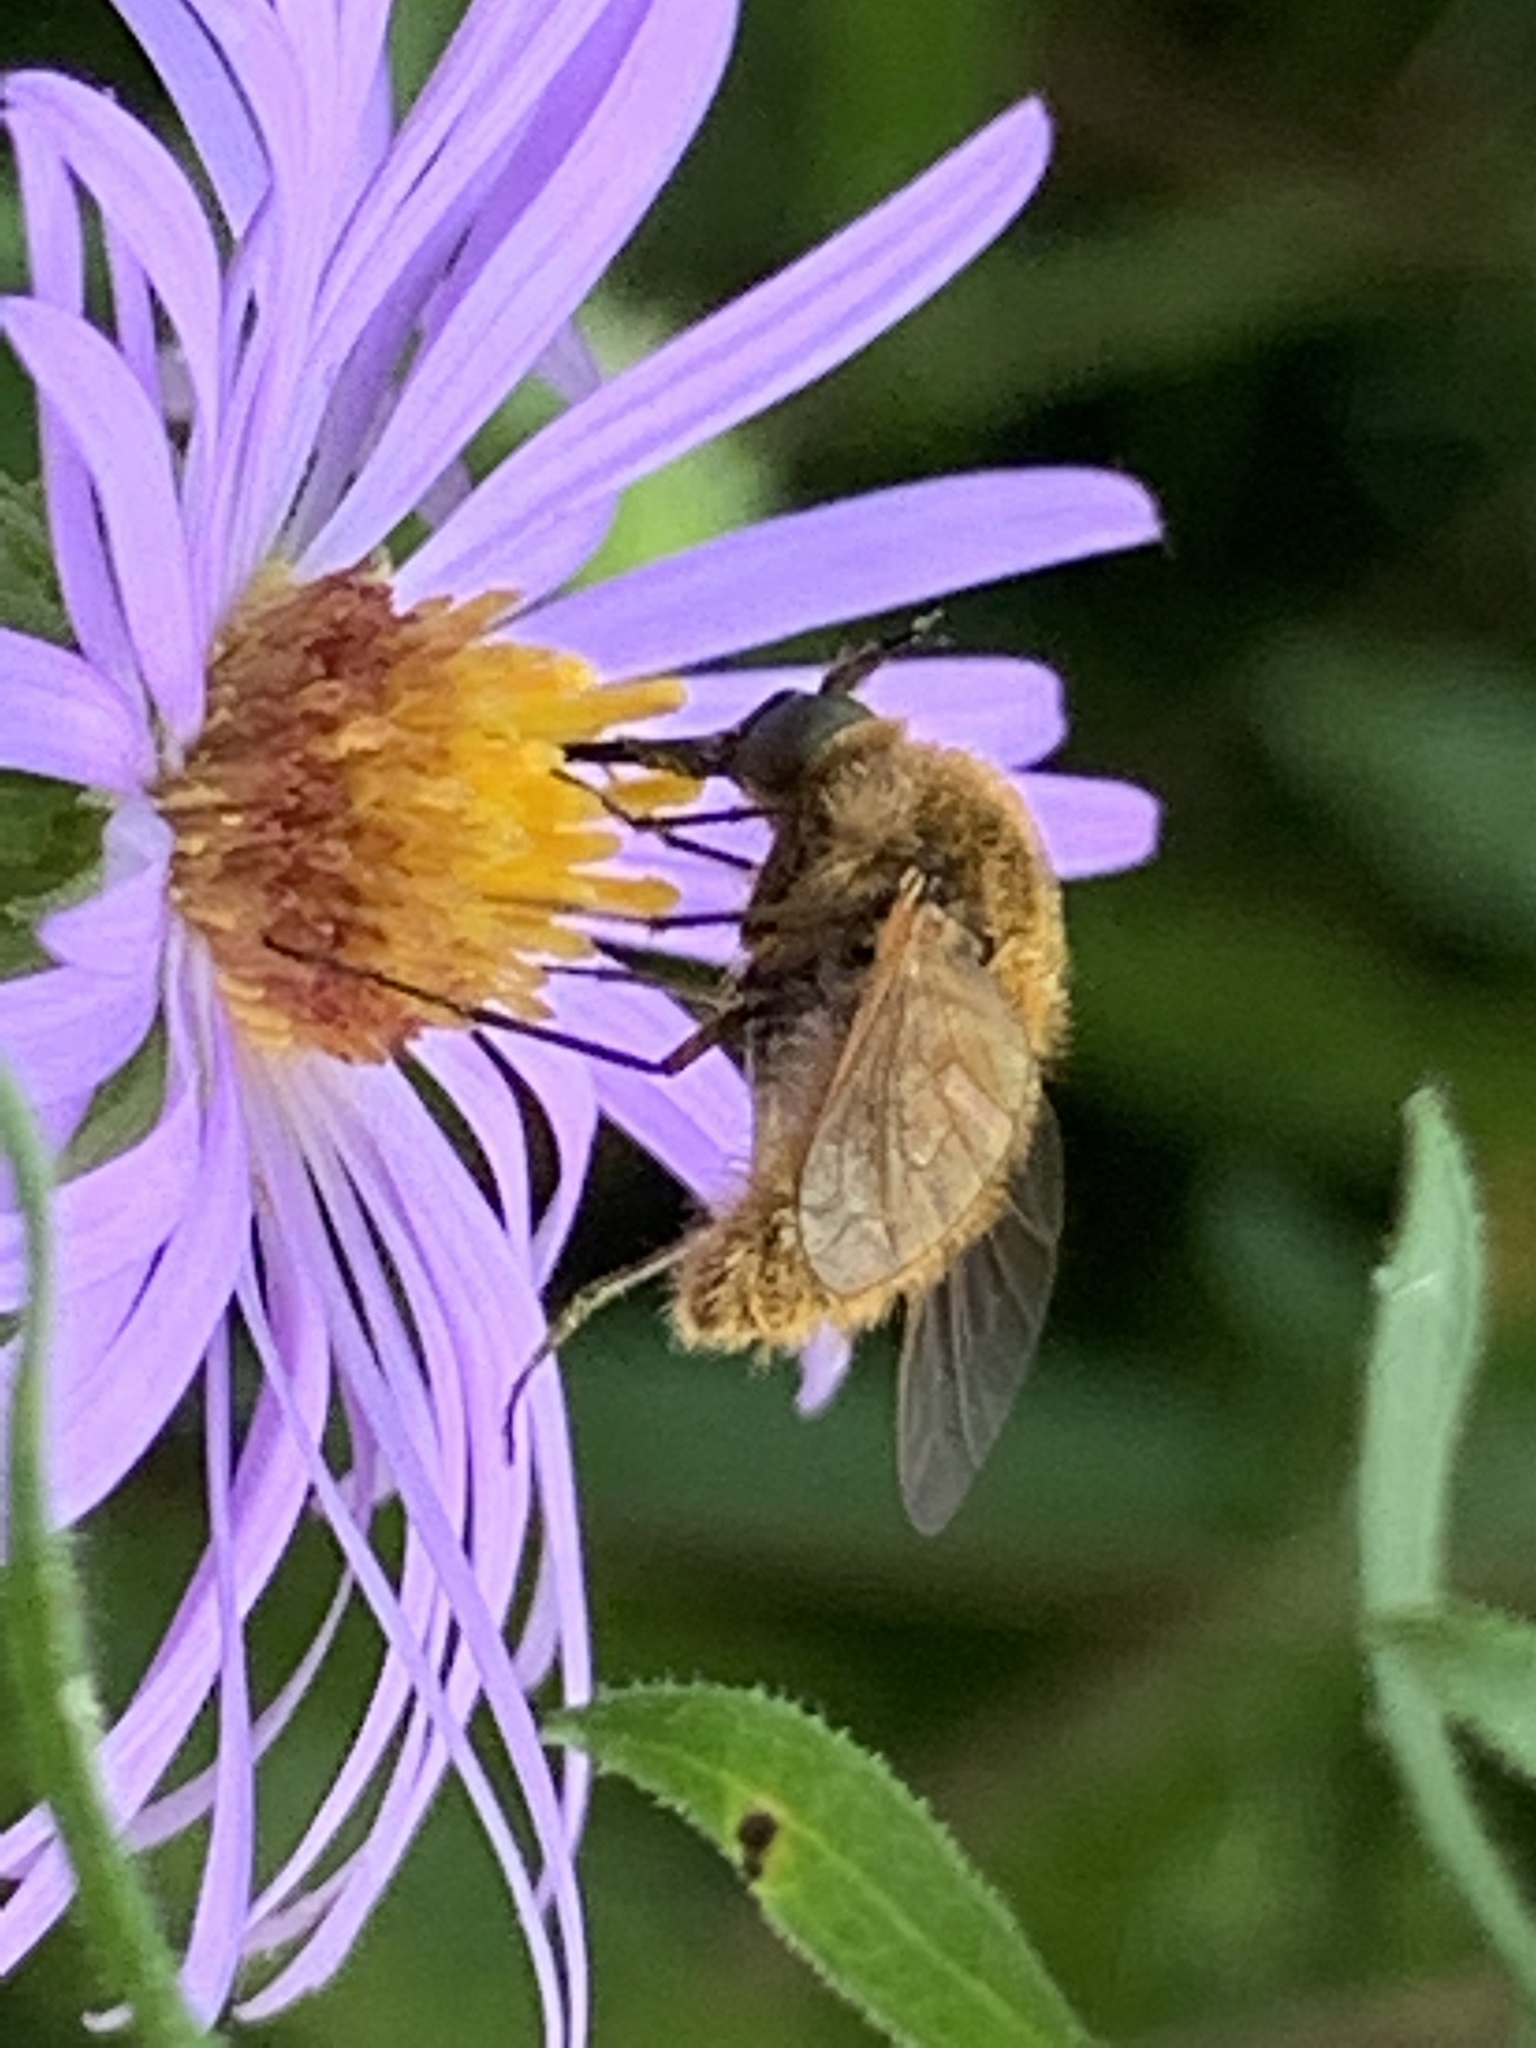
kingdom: Animalia
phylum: Arthropoda
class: Insecta
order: Diptera
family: Bombyliidae
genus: Sparnopolius
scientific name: Sparnopolius confusus
